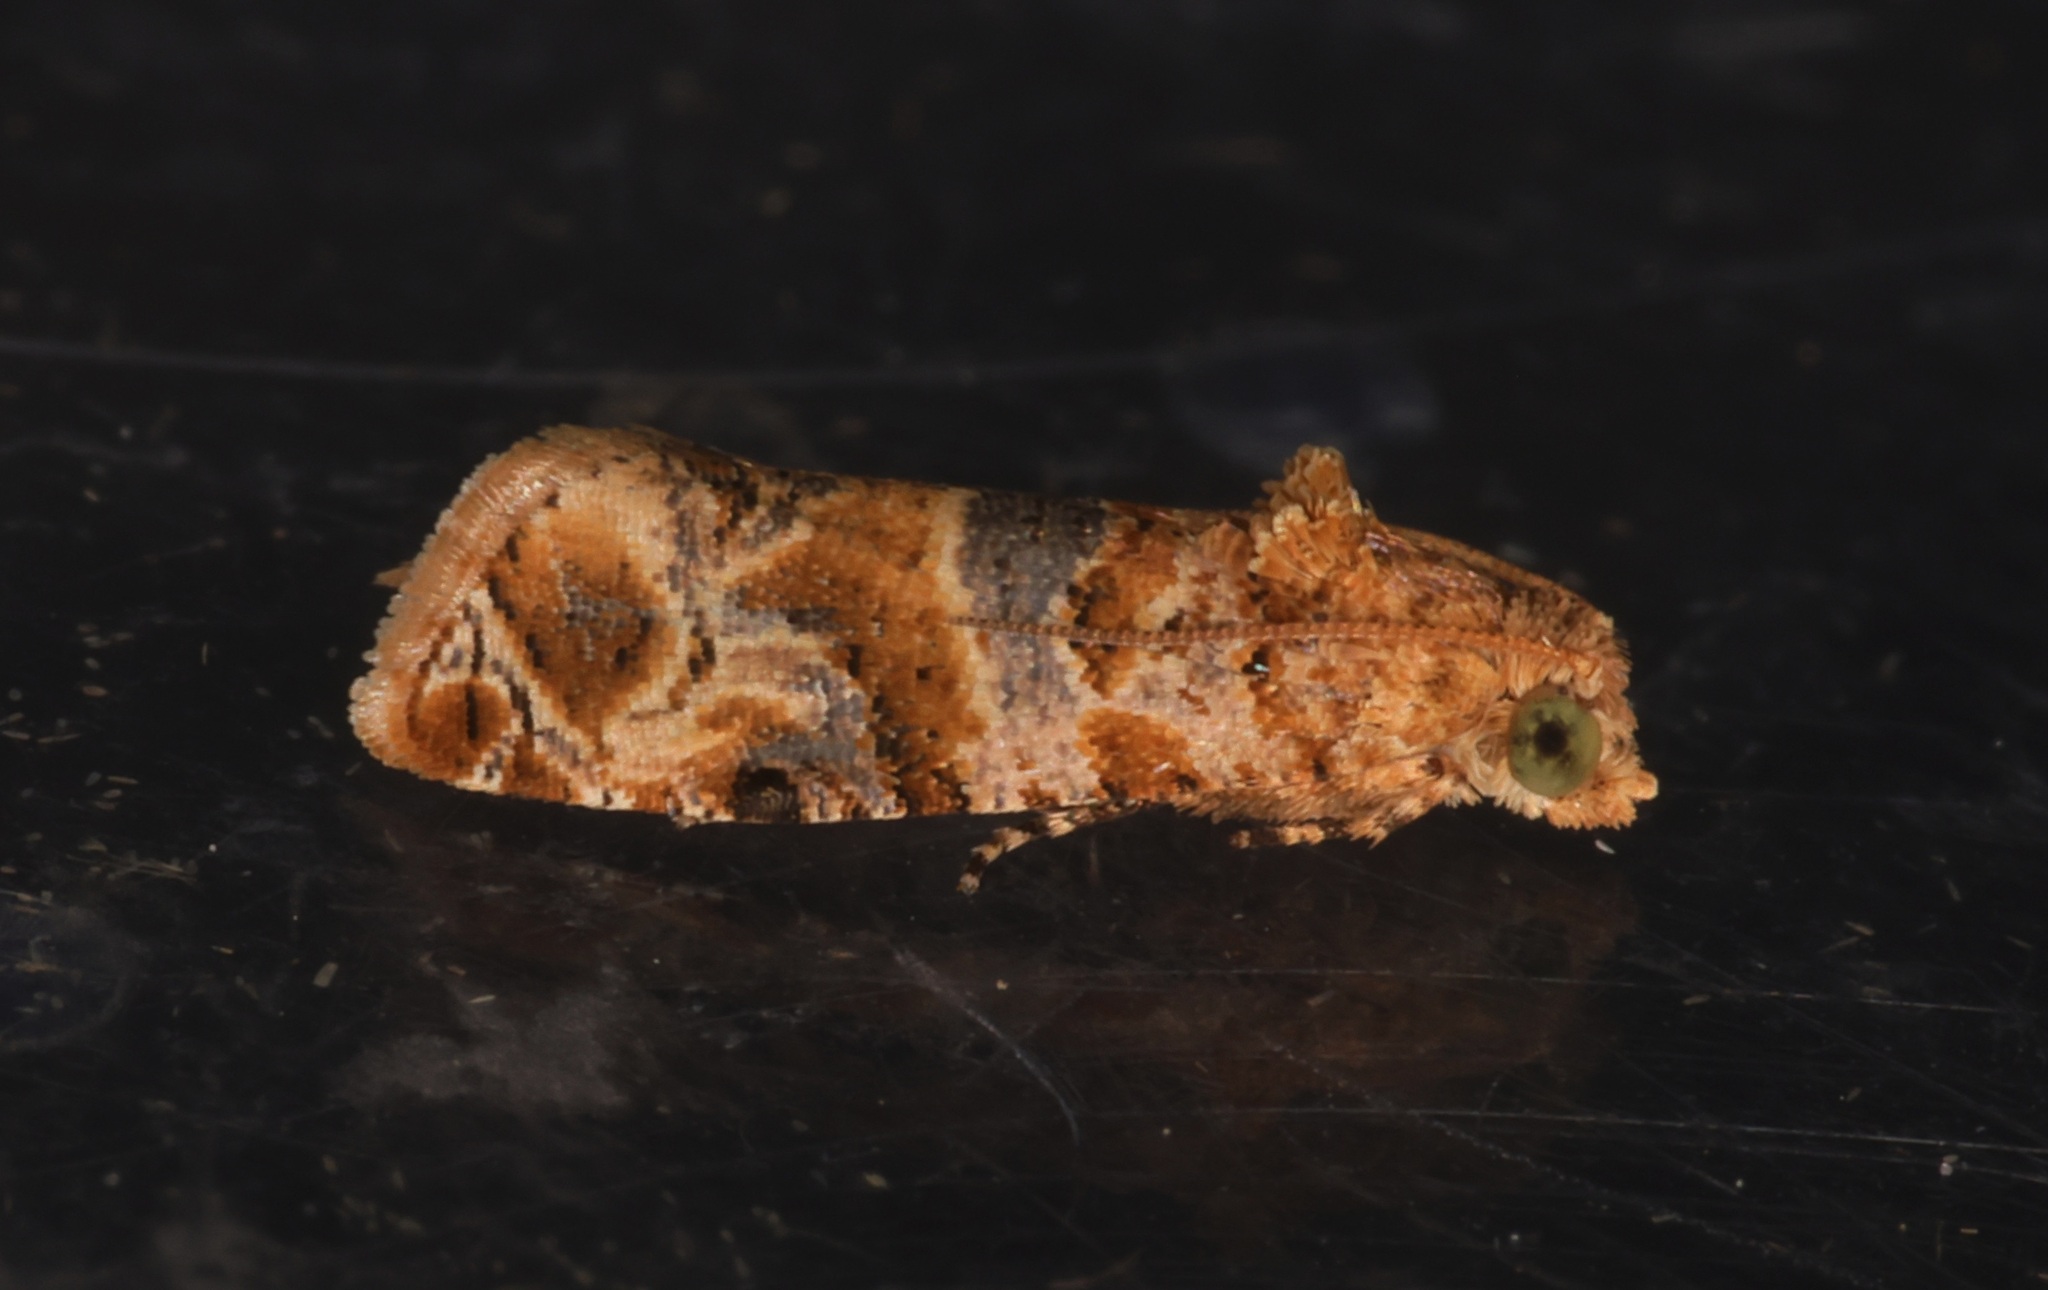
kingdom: Animalia
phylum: Arthropoda
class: Insecta
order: Lepidoptera
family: Tortricidae
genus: Lobesia
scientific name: Lobesia aeolopa
